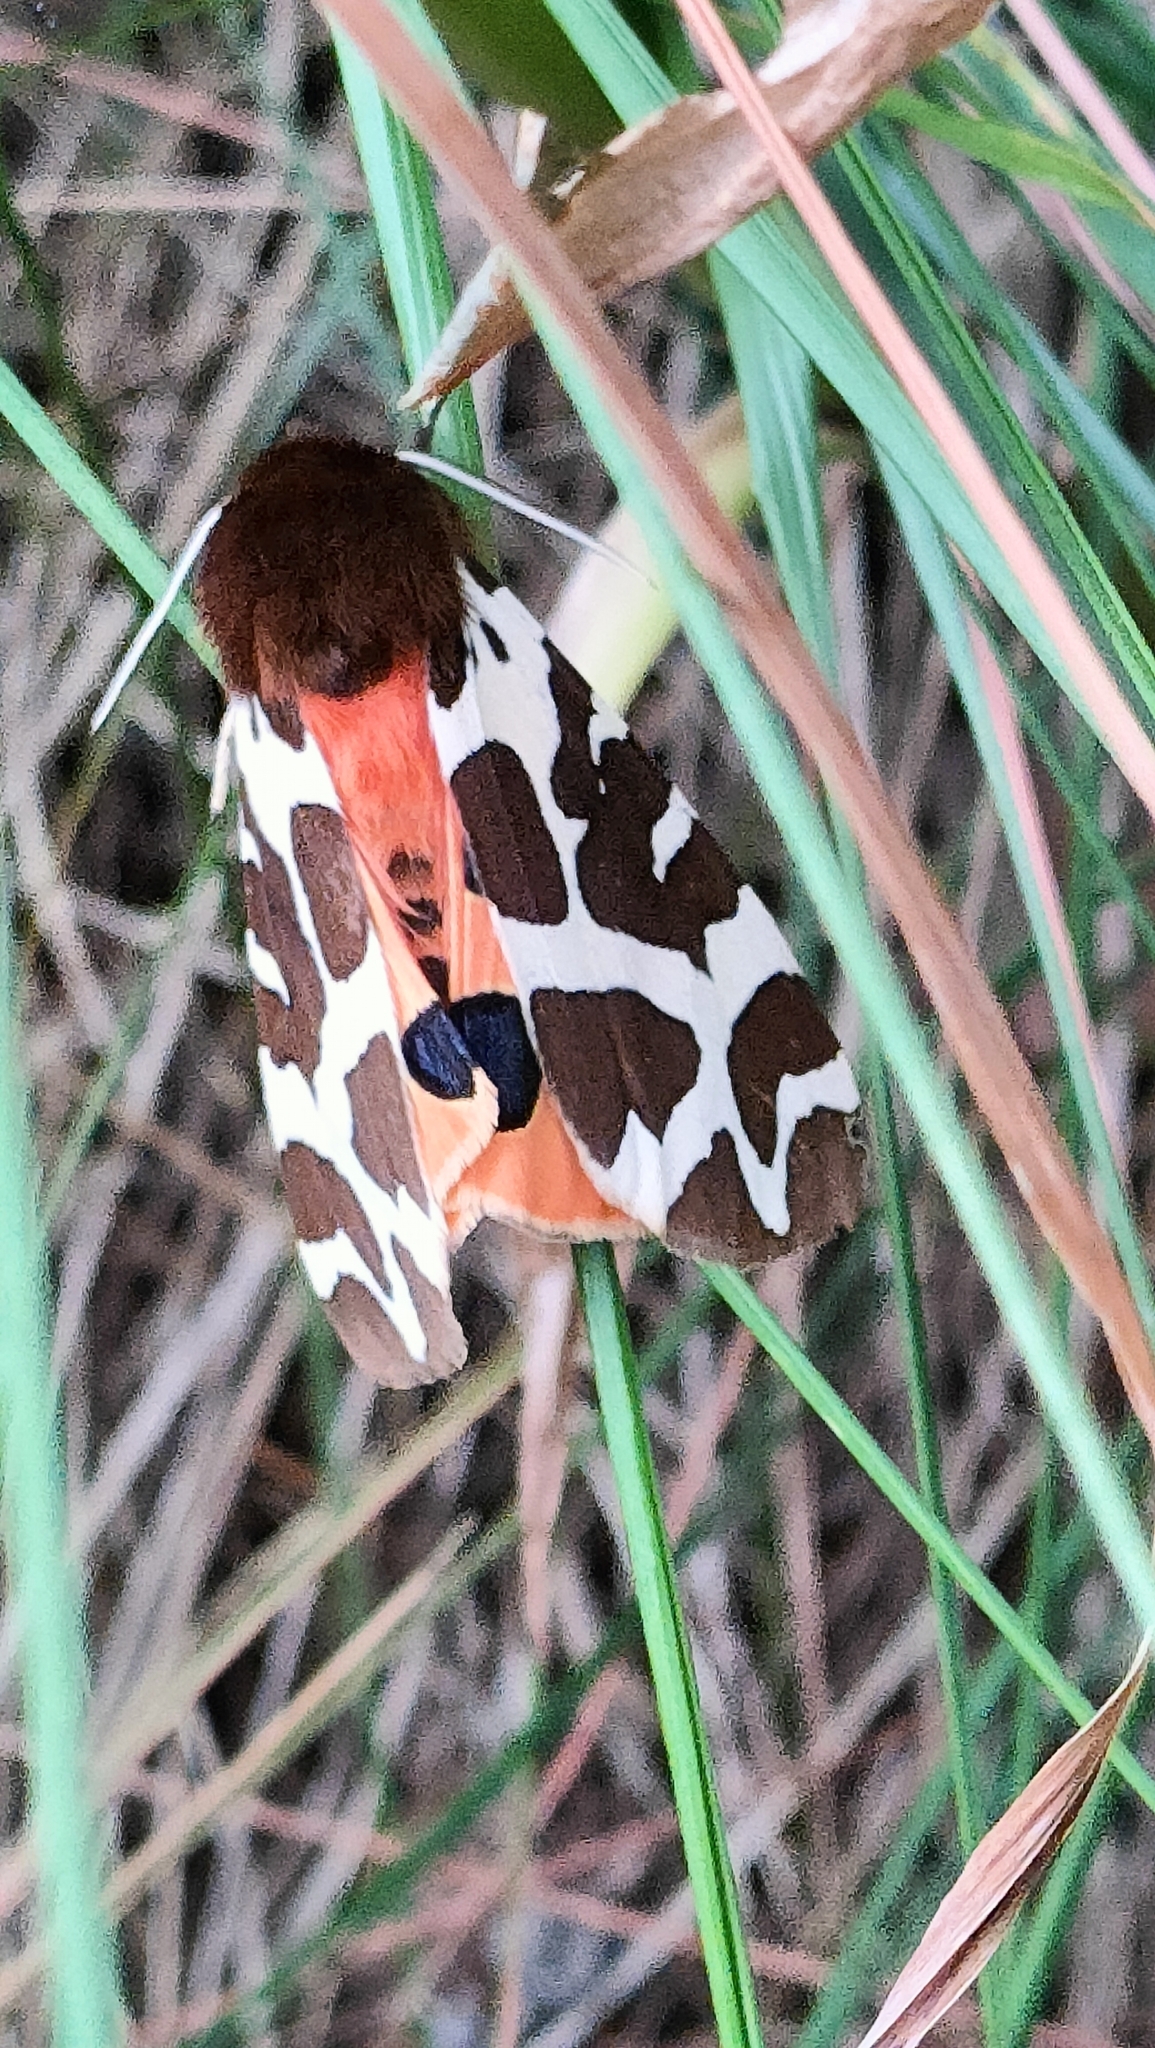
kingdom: Animalia
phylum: Arthropoda
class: Insecta
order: Lepidoptera
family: Erebidae
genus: Arctia
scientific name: Arctia caja
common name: Garden tiger
